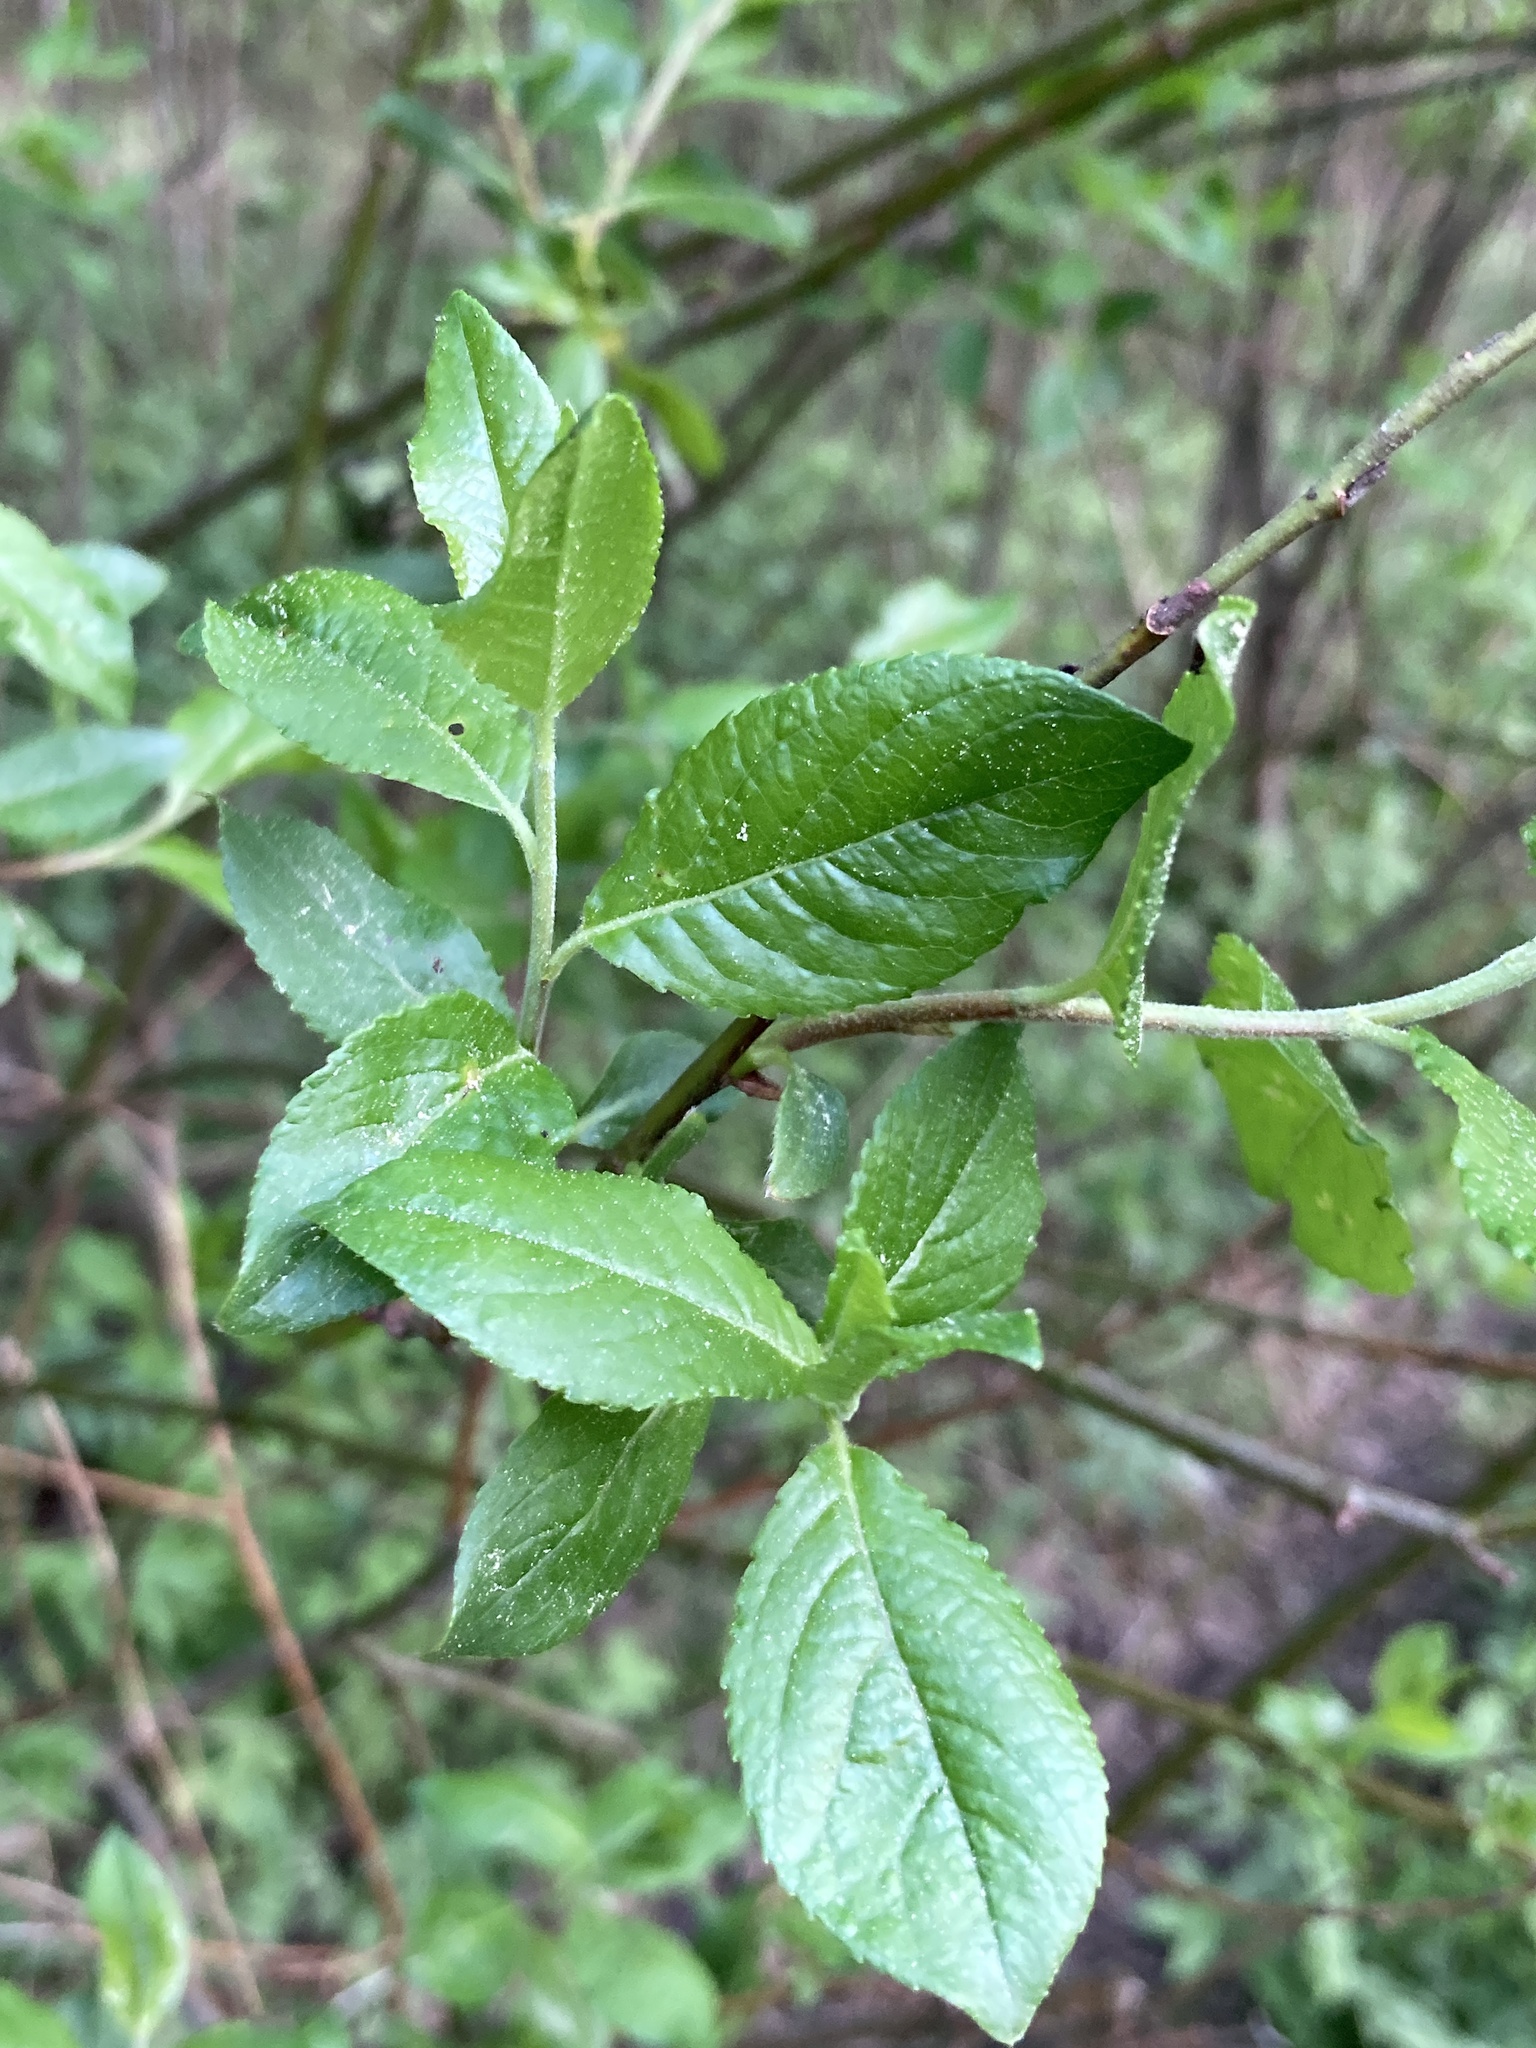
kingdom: Plantae
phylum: Tracheophyta
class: Magnoliopsida
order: Malpighiales
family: Salicaceae
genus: Salix
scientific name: Salix myrsinifolia
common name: Dark-leaved willow
